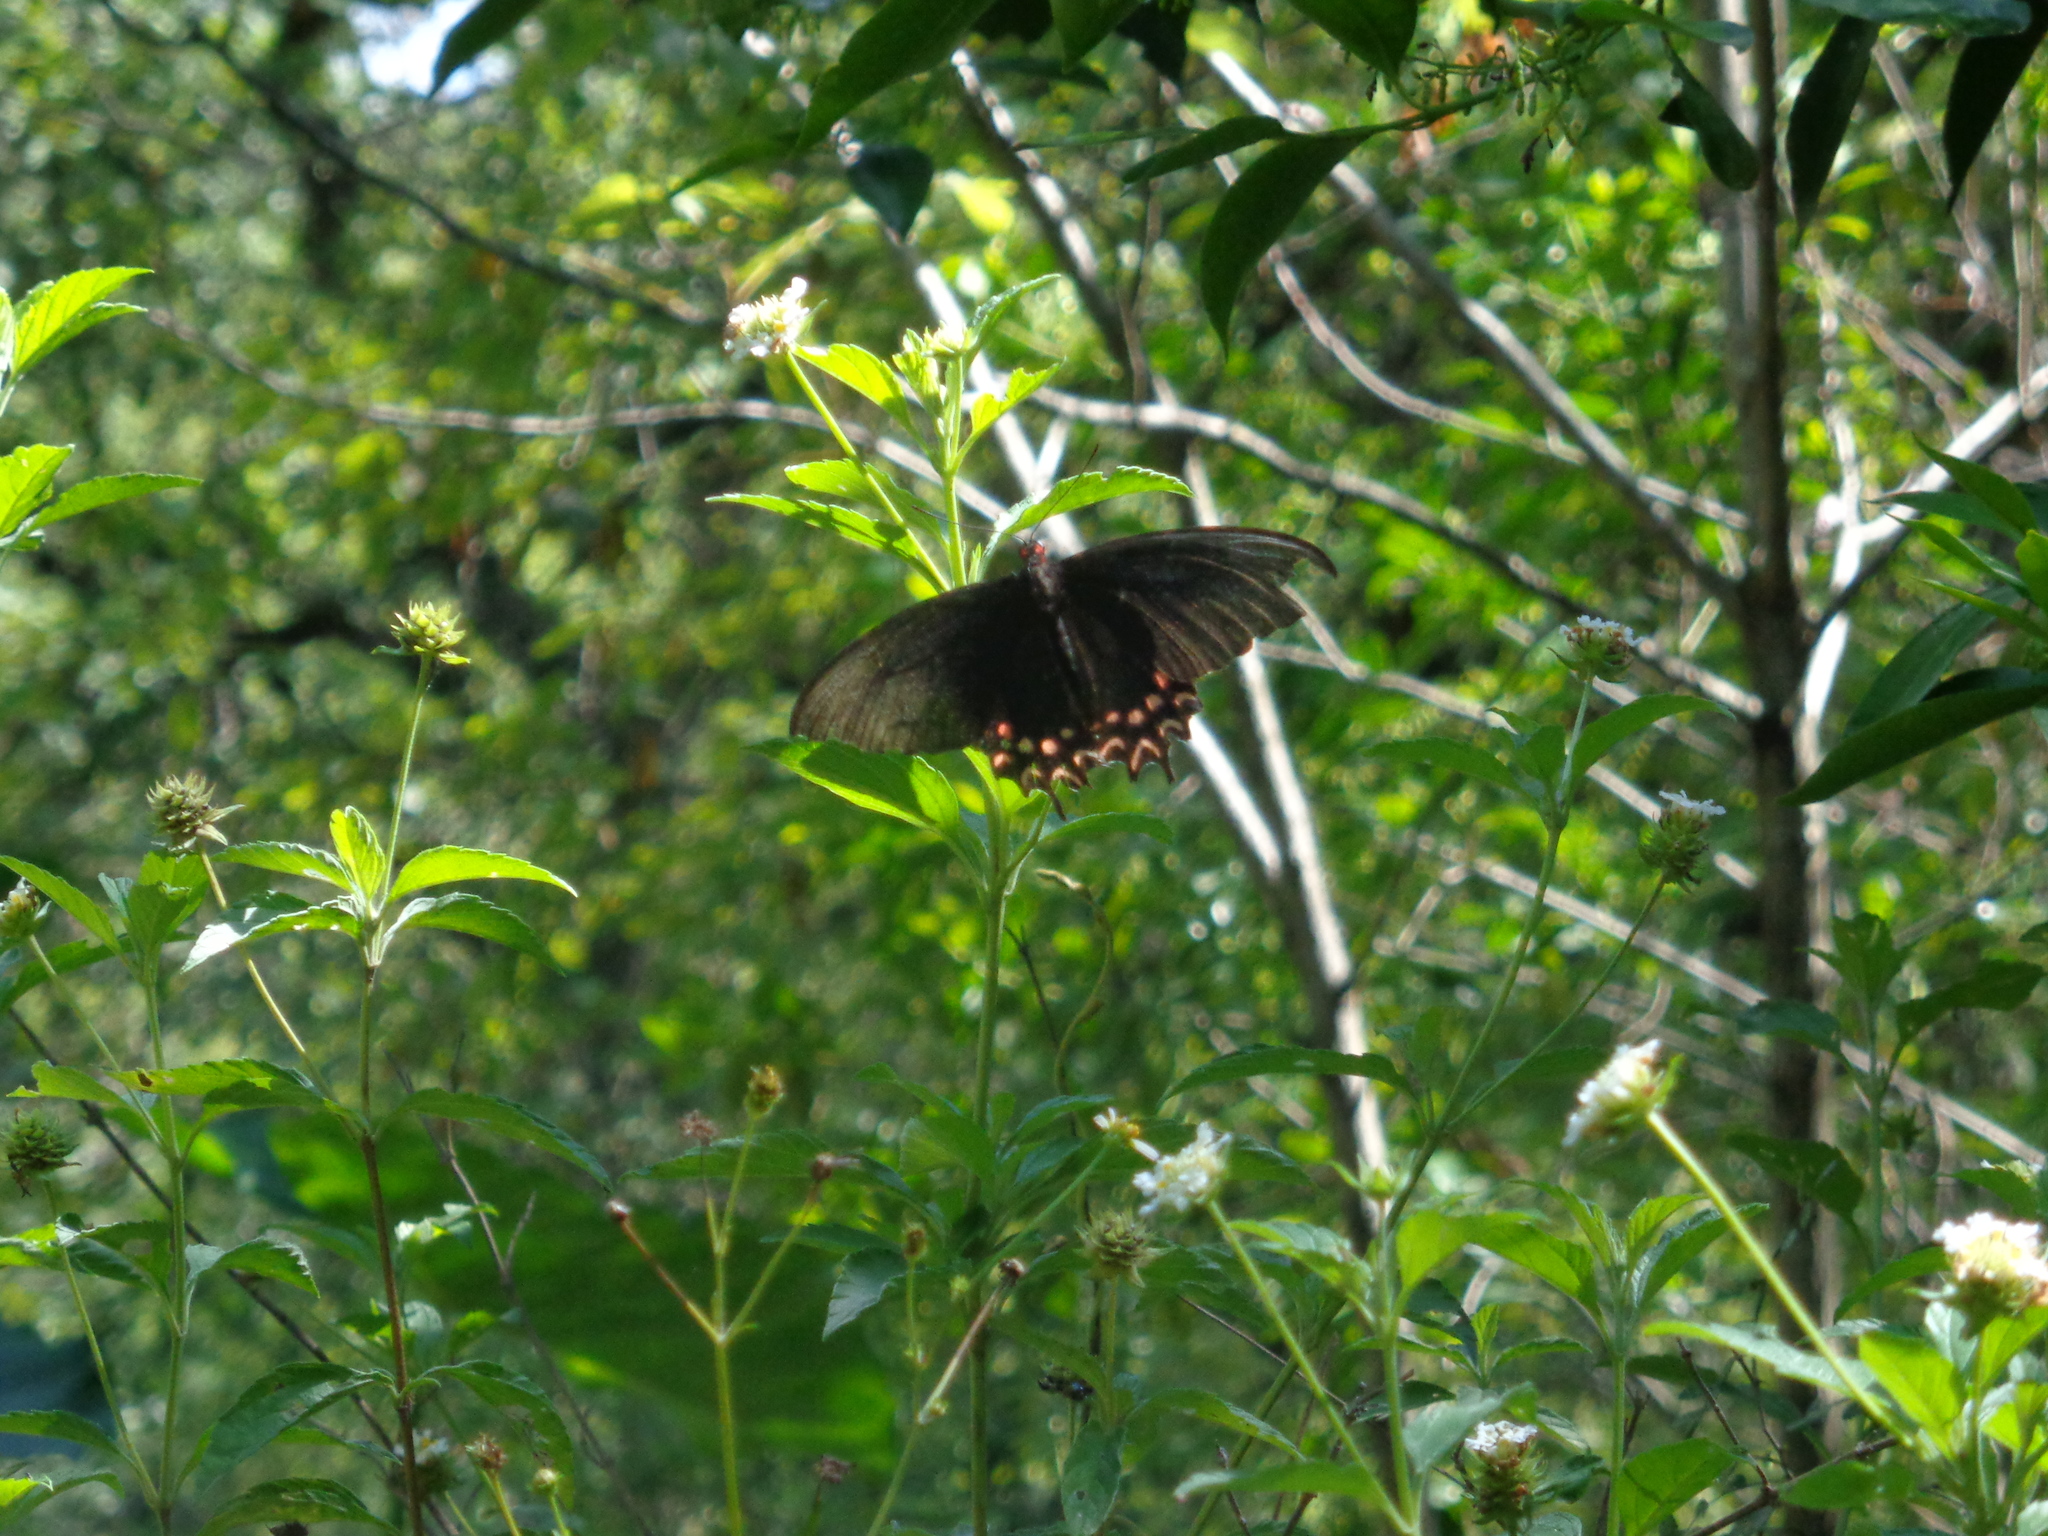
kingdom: Animalia
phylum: Arthropoda
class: Insecta
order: Lepidoptera
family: Papilionidae
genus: Parides
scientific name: Parides photinus
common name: Pink-spotted cattleheart
